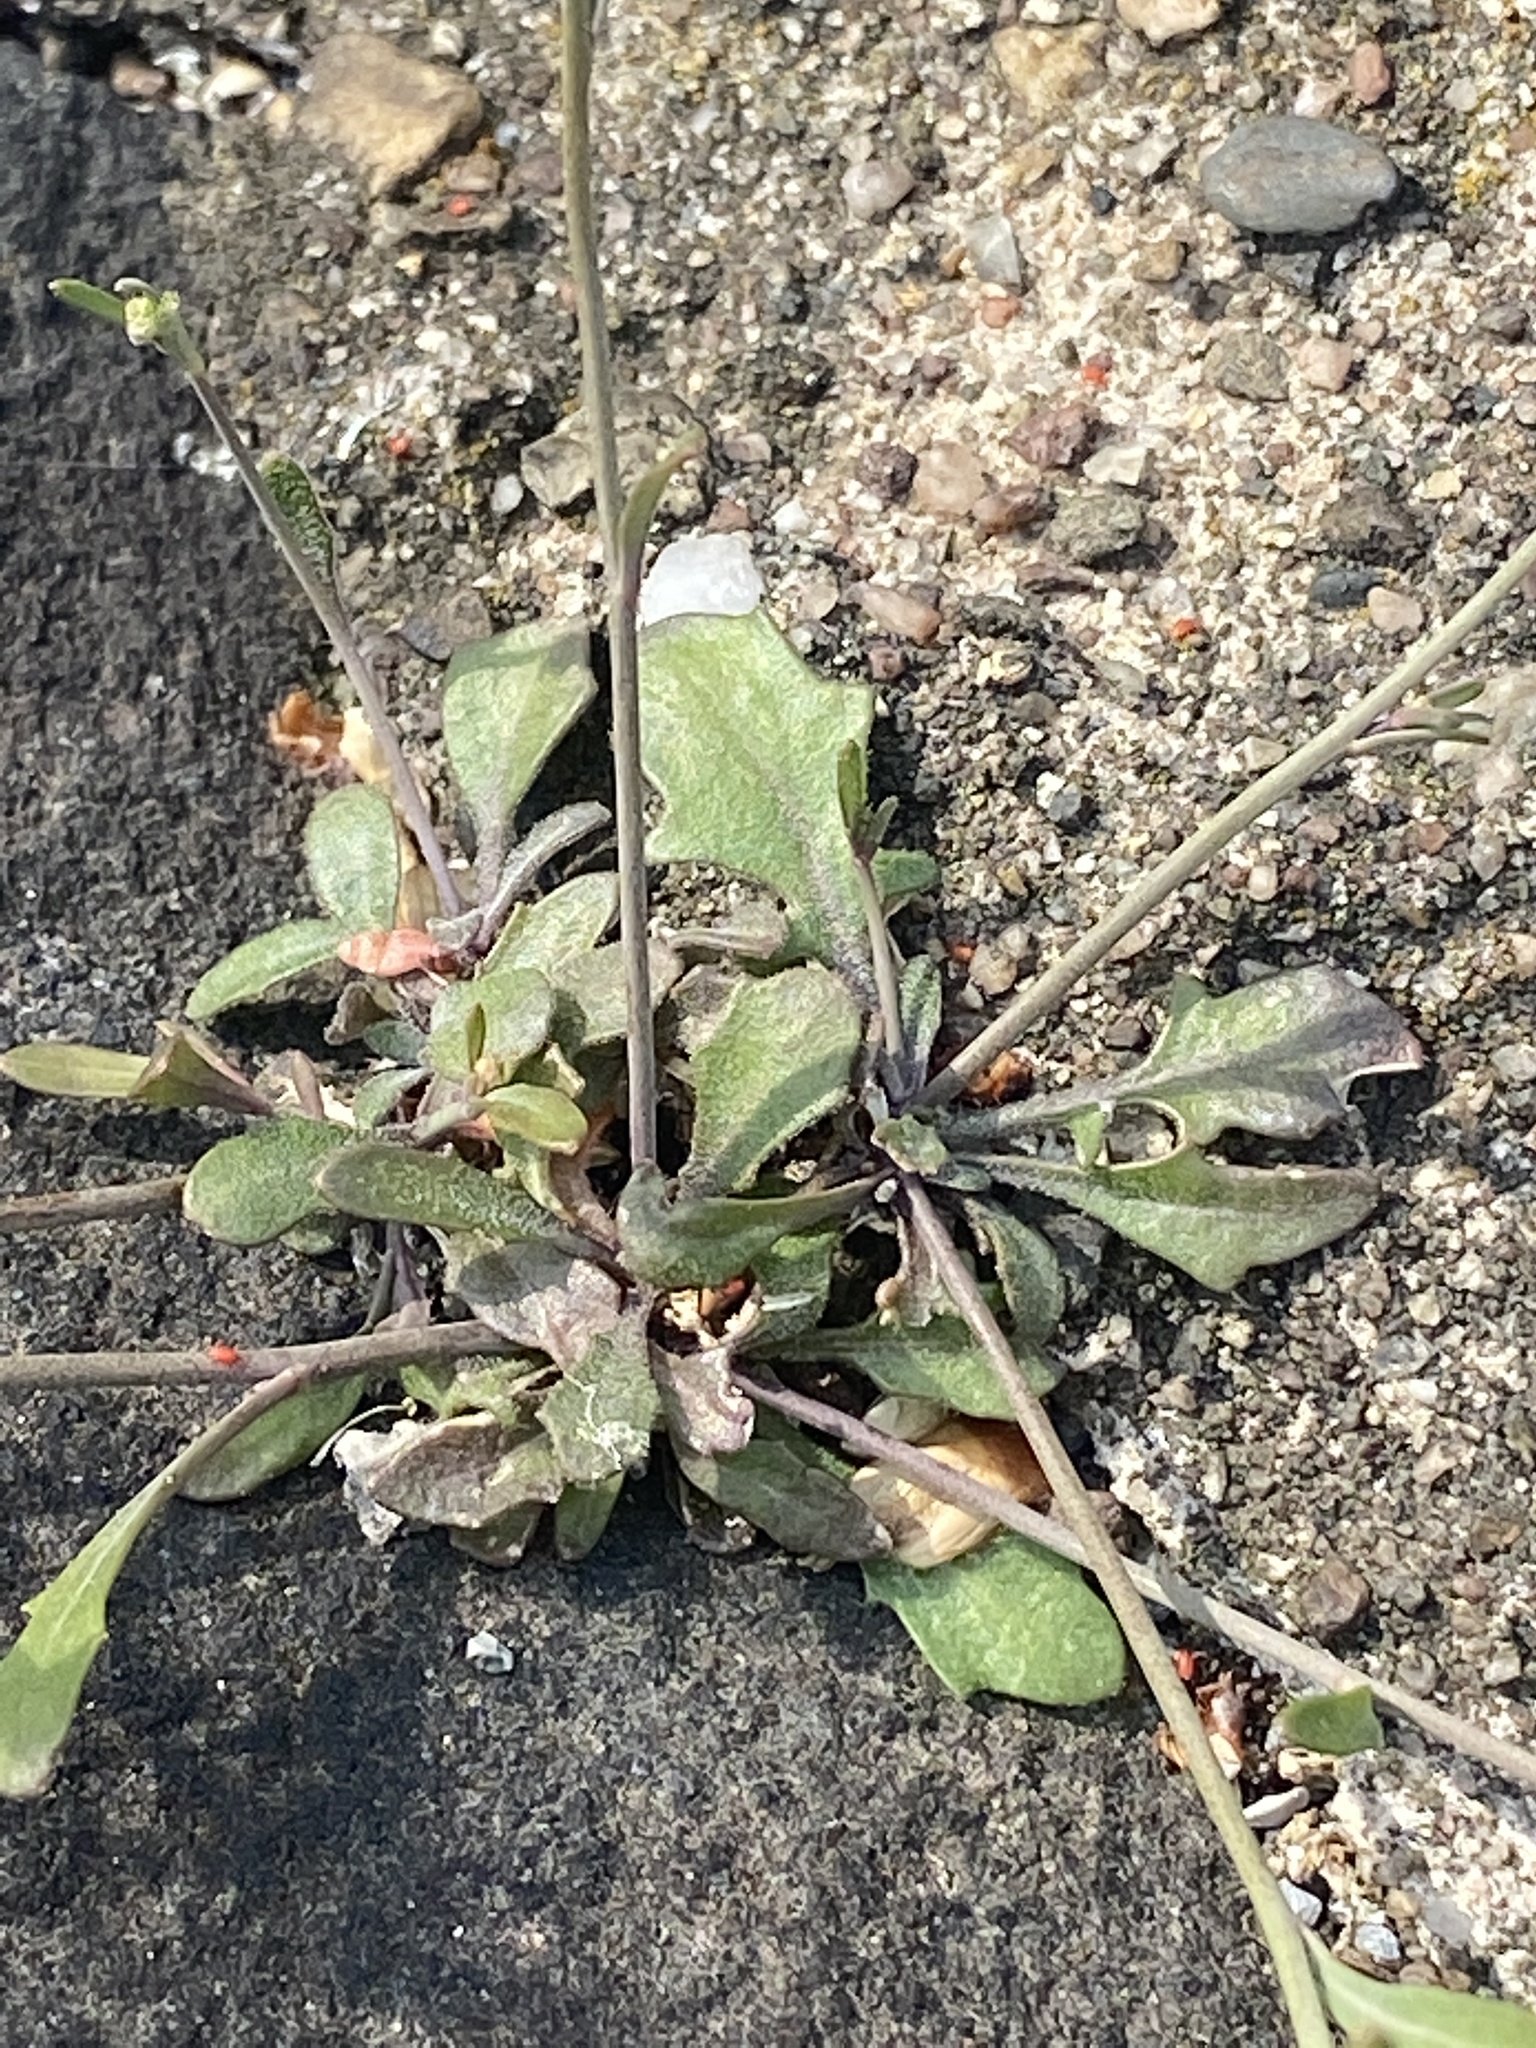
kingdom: Plantae
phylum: Tracheophyta
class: Magnoliopsida
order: Brassicales
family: Brassicaceae
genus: Arabidopsis
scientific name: Arabidopsis lyrata
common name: Lyrate rockcress
